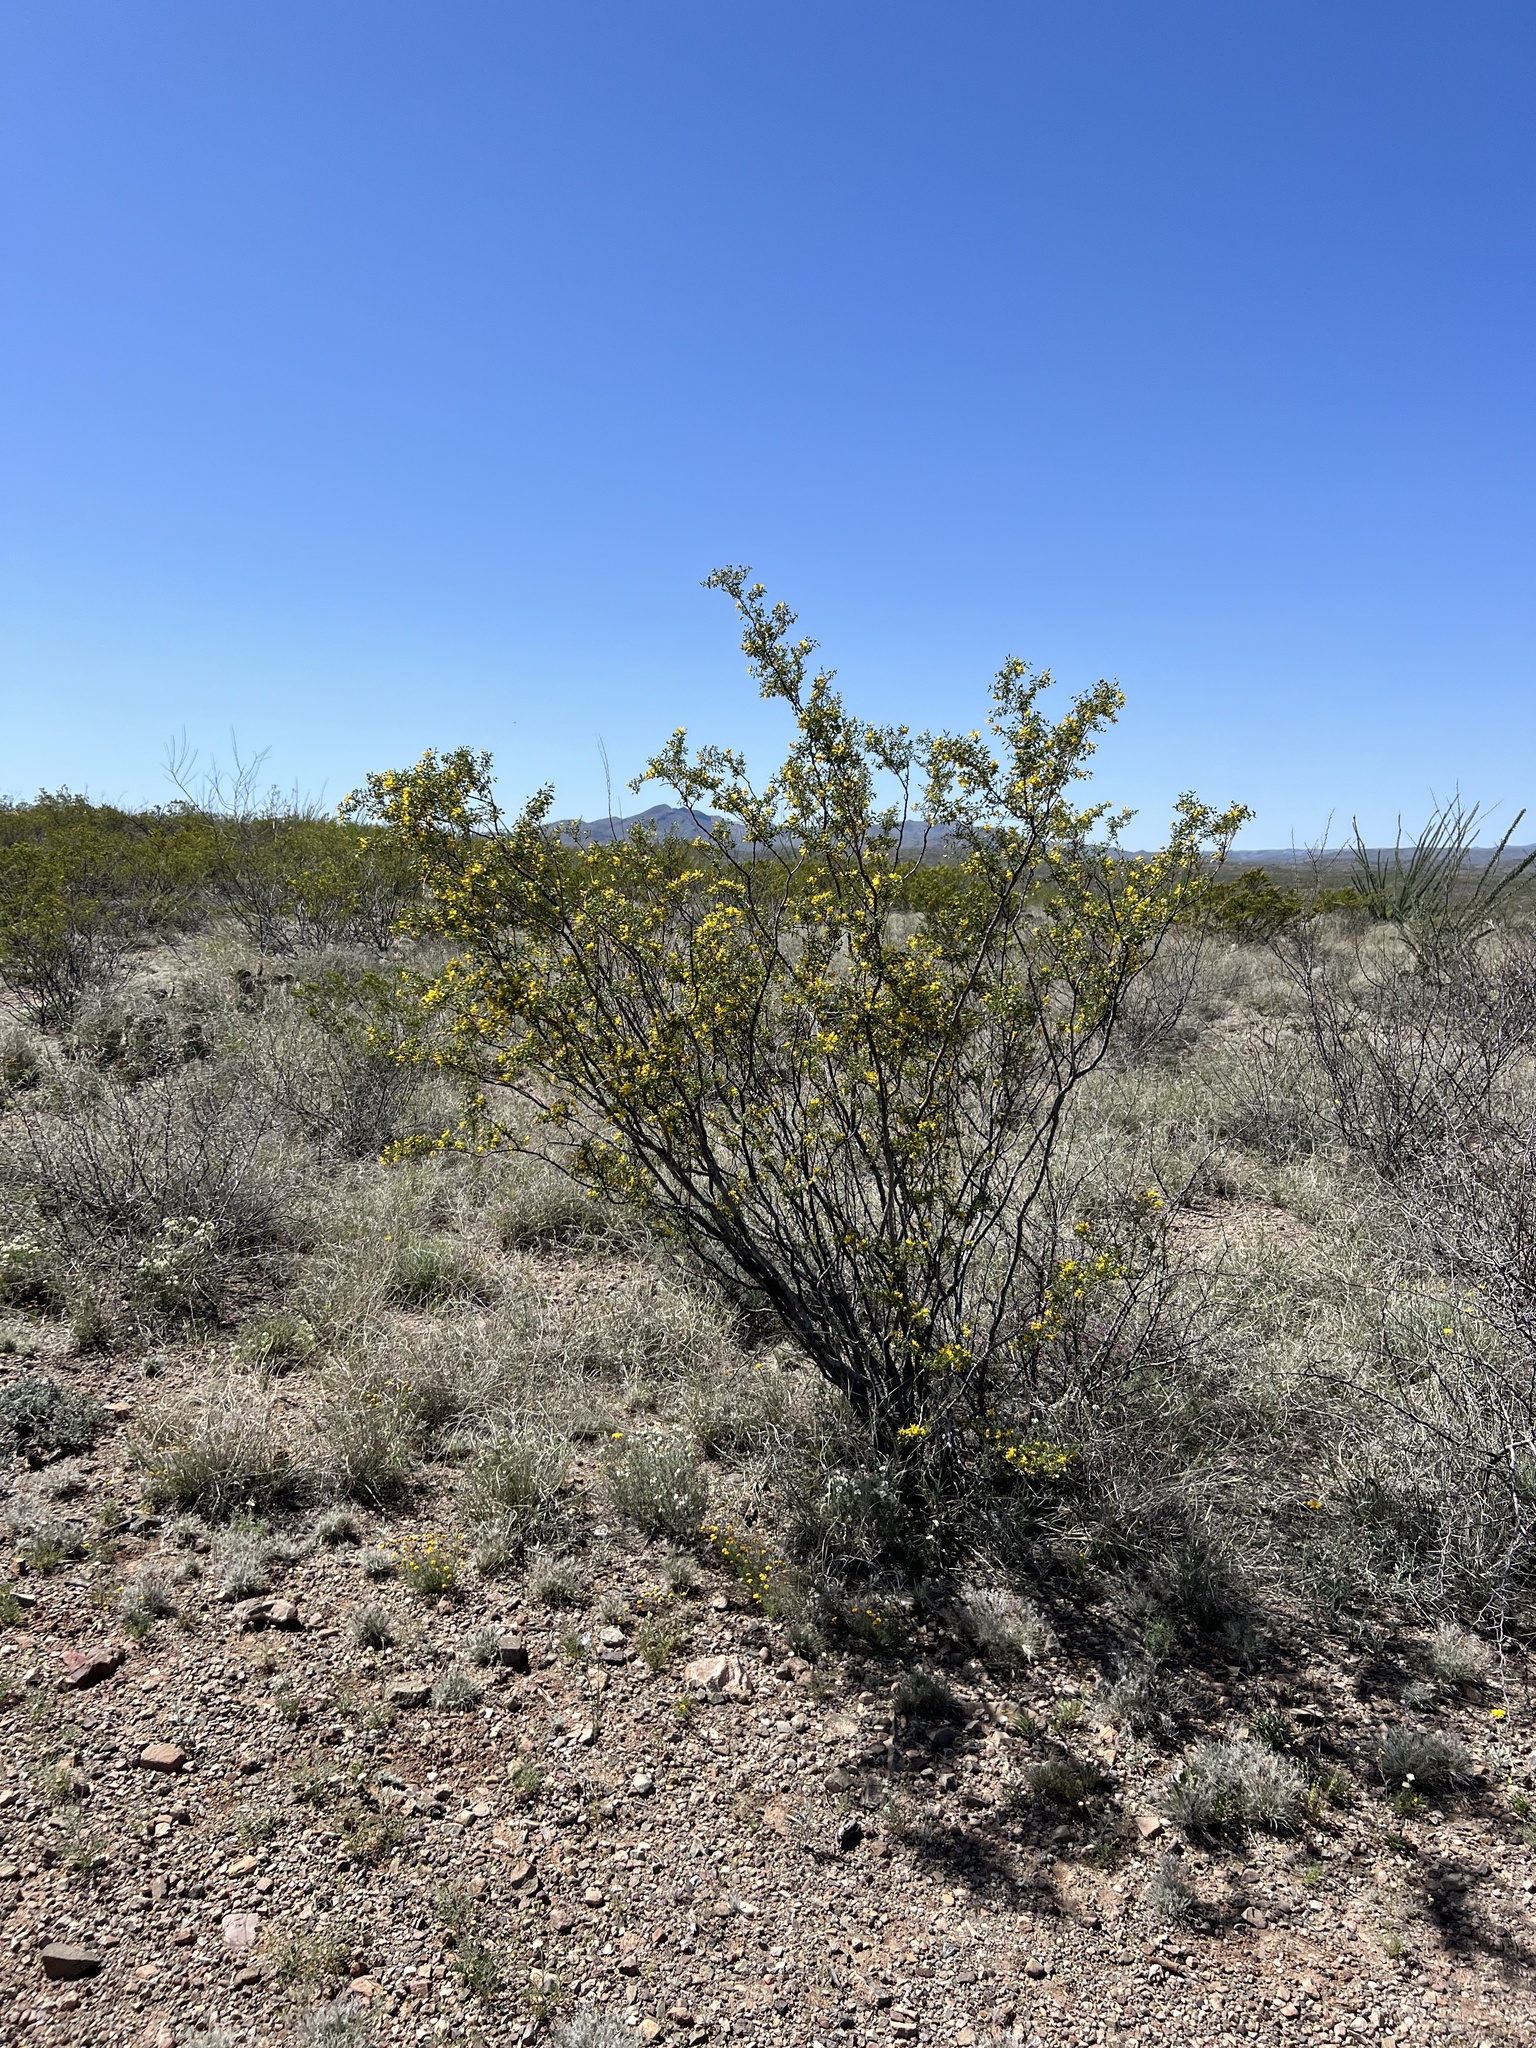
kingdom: Plantae
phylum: Tracheophyta
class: Magnoliopsida
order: Zygophyllales
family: Zygophyllaceae
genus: Larrea
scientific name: Larrea tridentata
